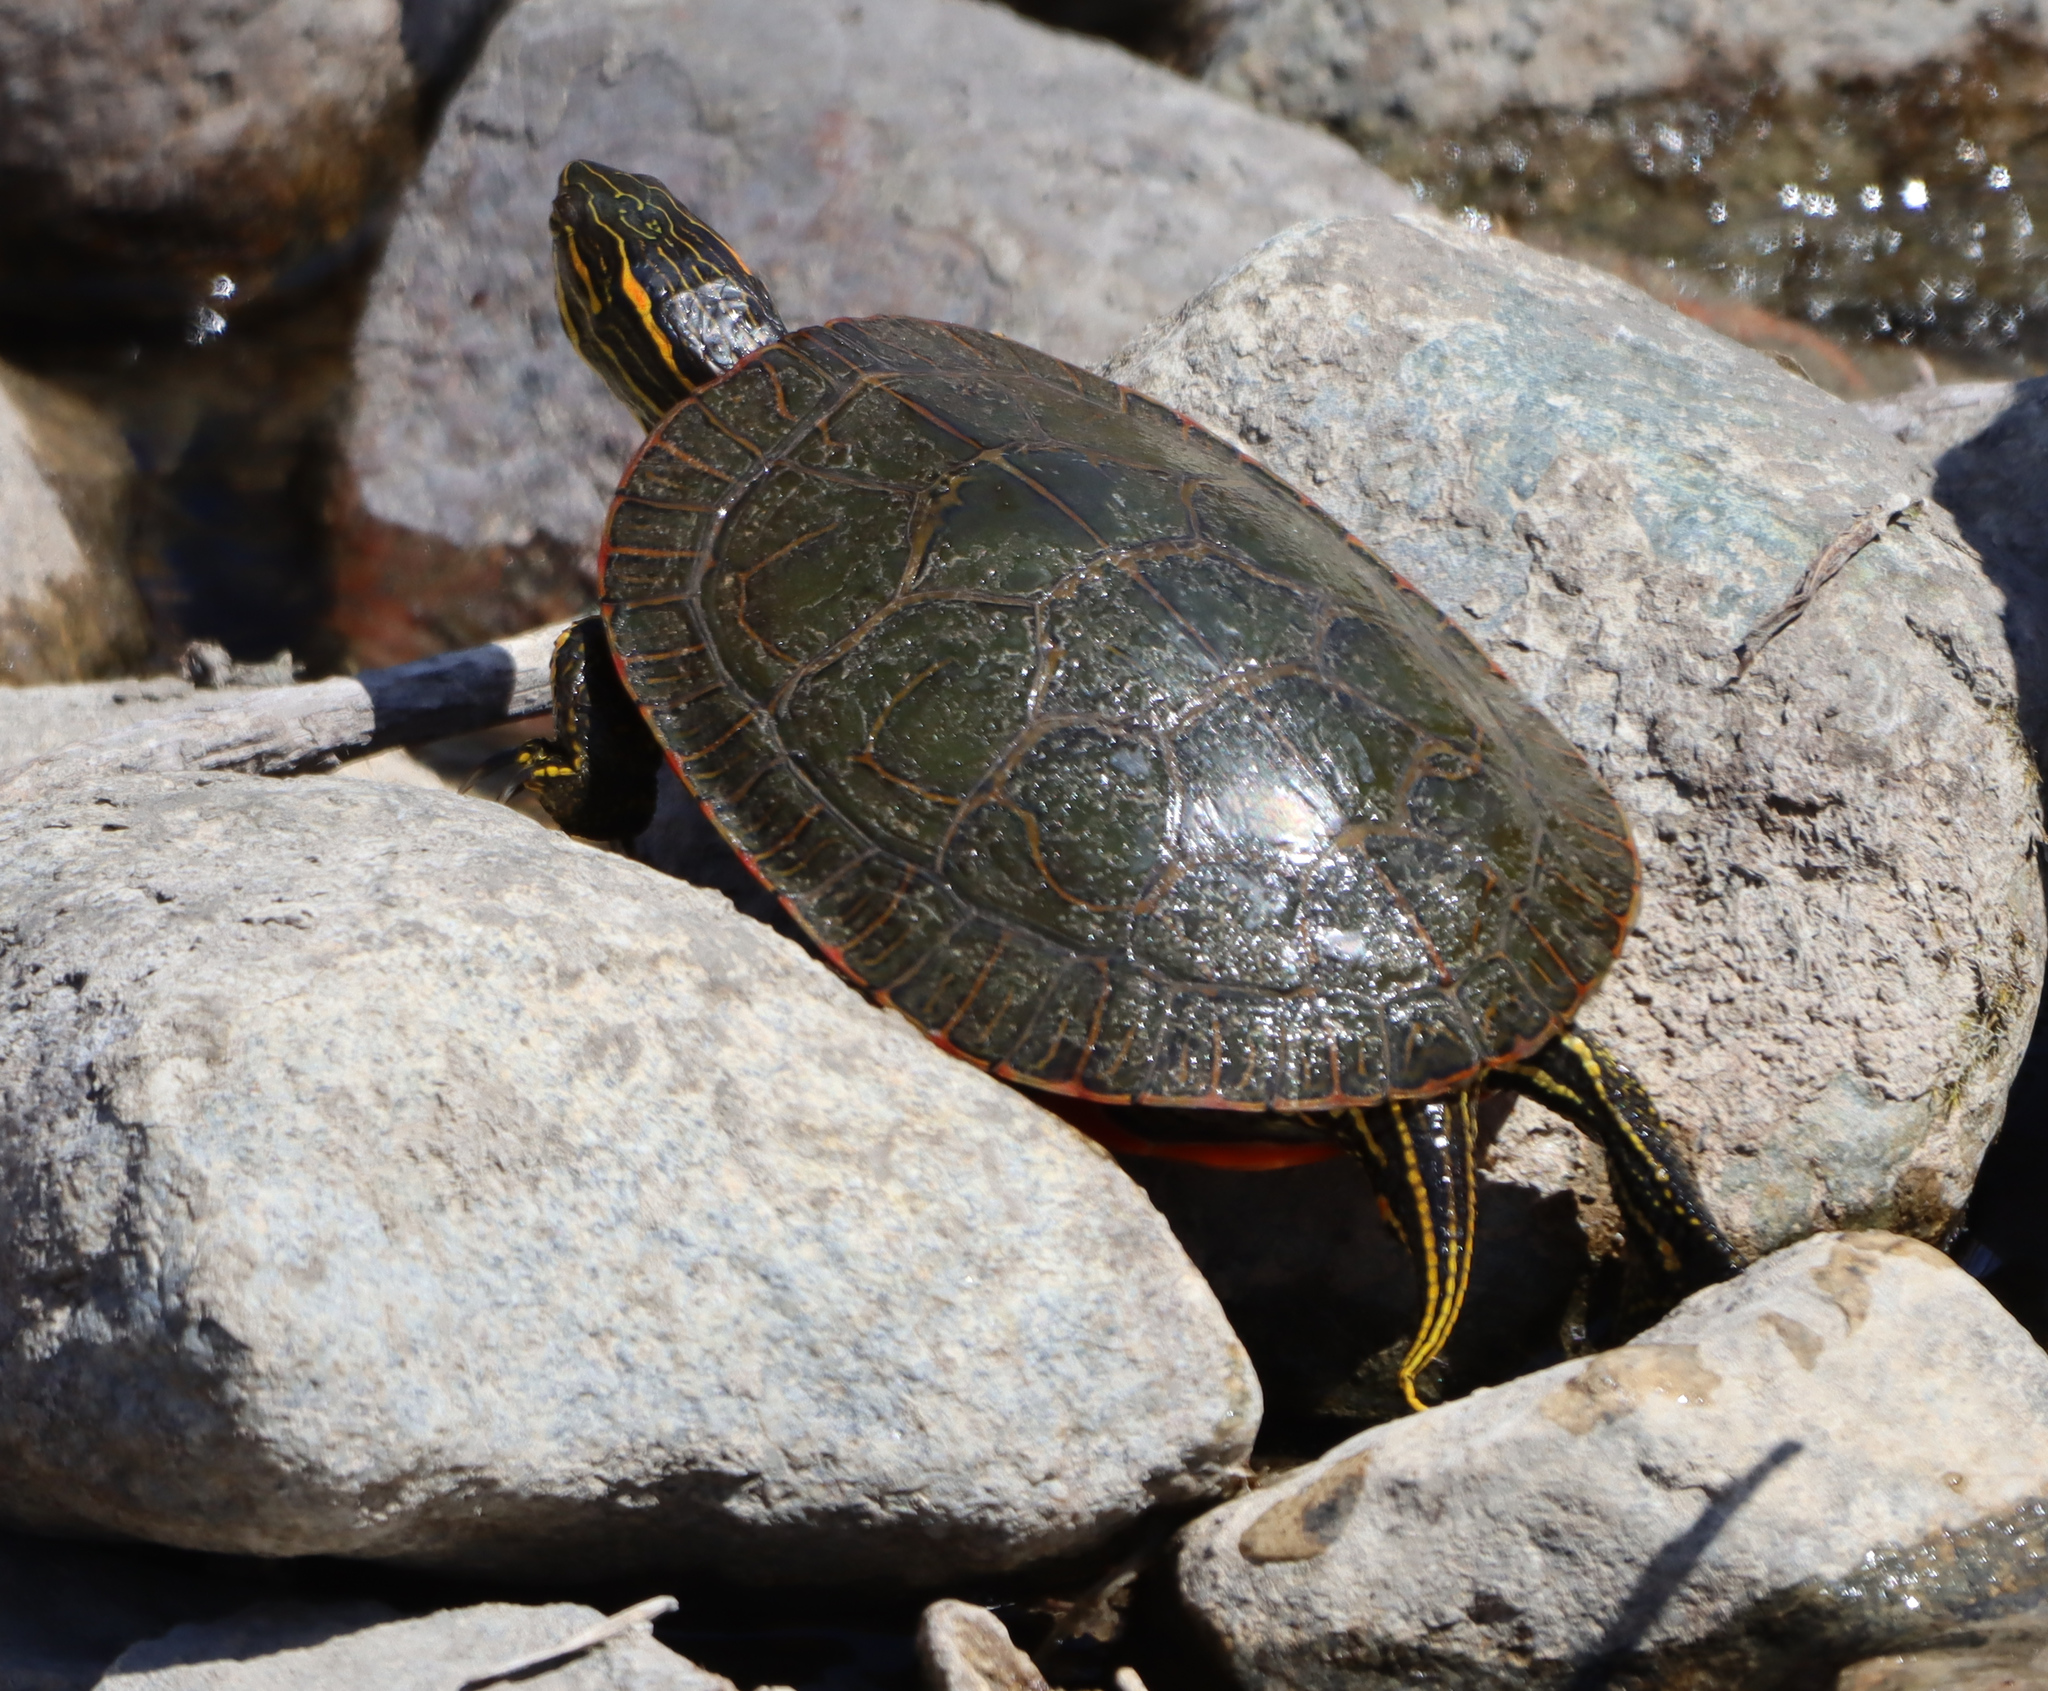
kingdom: Animalia
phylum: Chordata
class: Testudines
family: Emydidae
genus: Chrysemys
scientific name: Chrysemys picta
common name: Painted turtle
